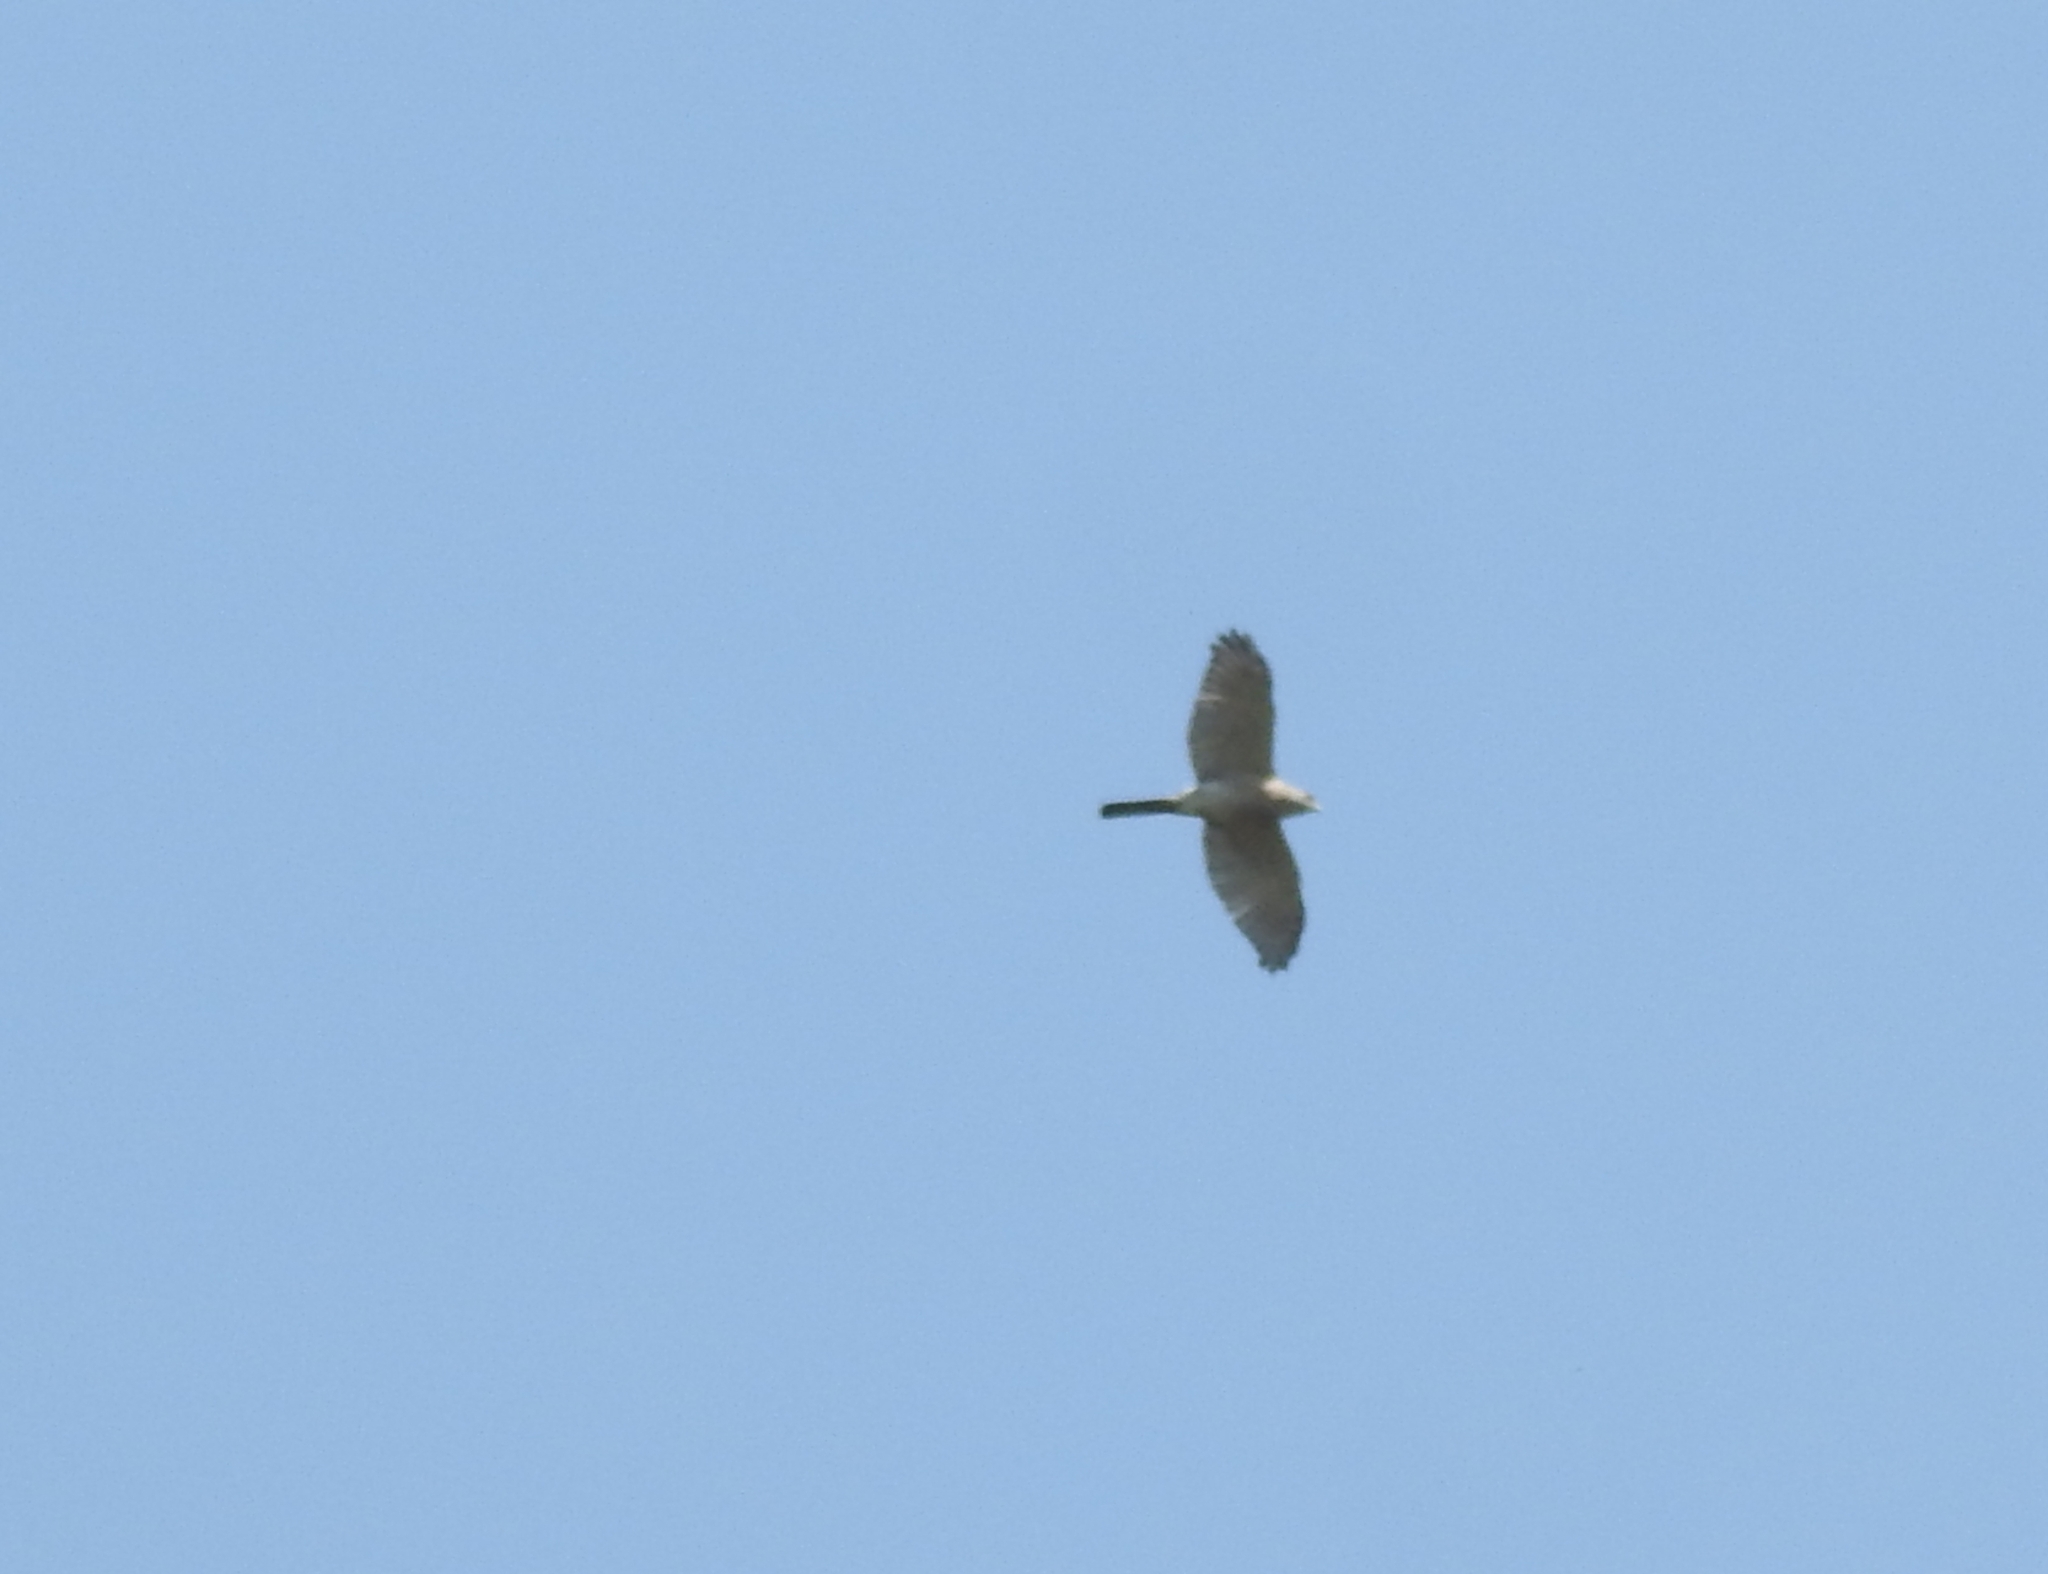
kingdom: Animalia
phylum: Chordata
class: Aves
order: Accipitriformes
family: Accipitridae
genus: Accipiter
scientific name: Accipiter badius
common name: Shikra
